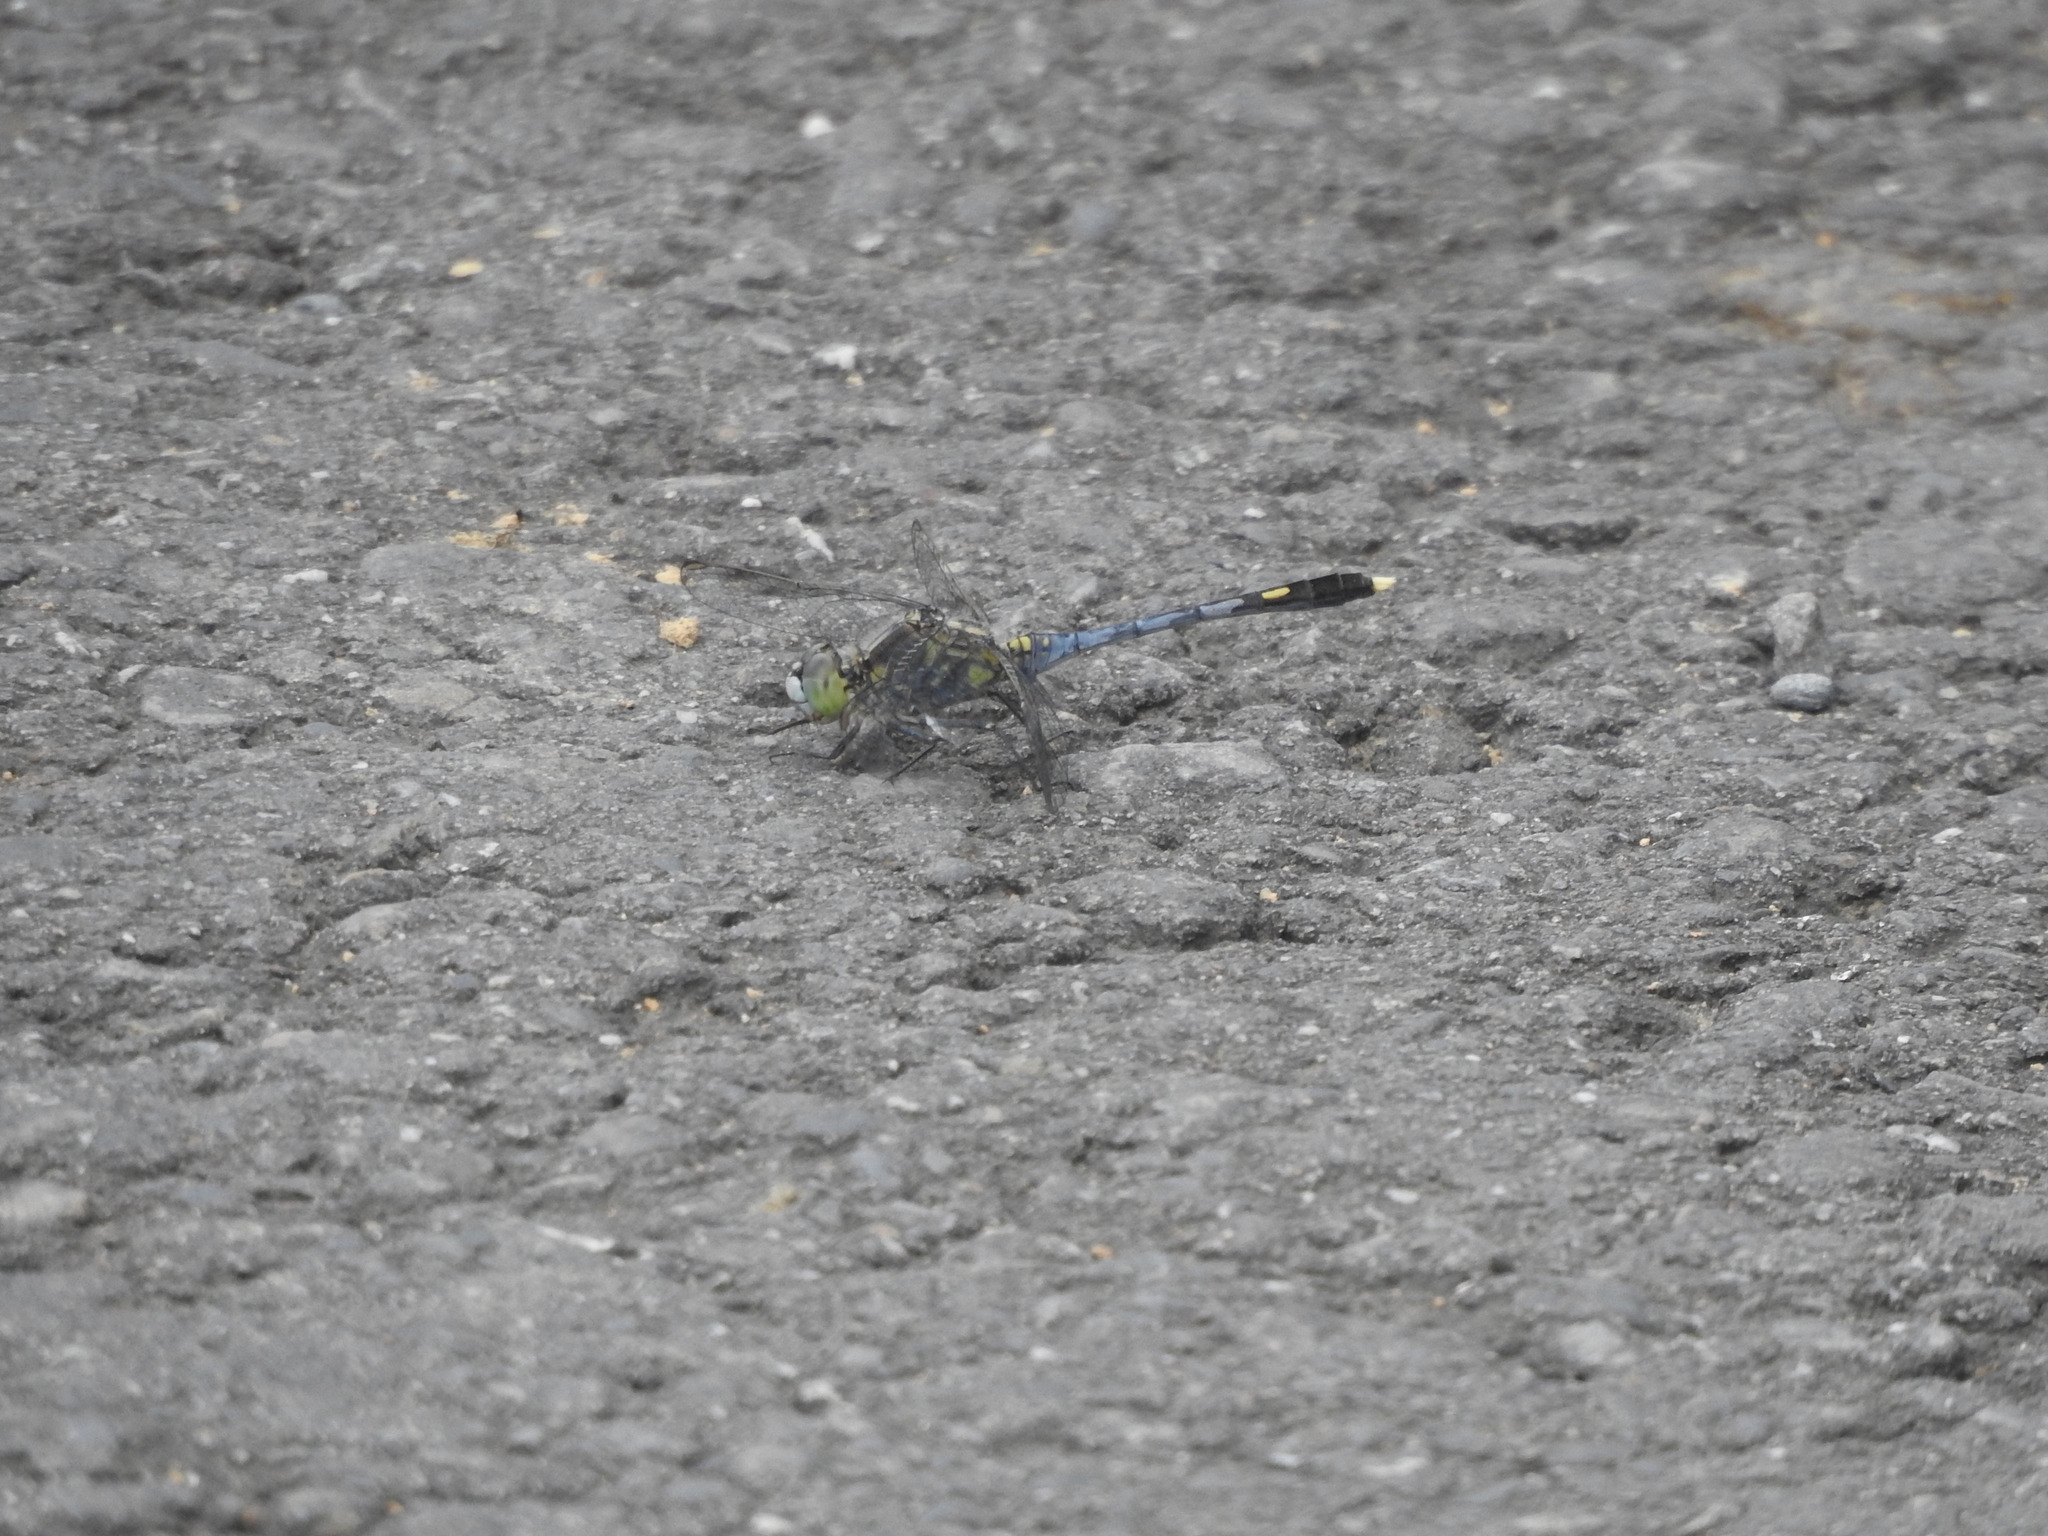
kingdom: Animalia
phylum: Arthropoda
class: Insecta
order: Odonata
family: Libellulidae
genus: Diplacodes
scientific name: Diplacodes trivialis
